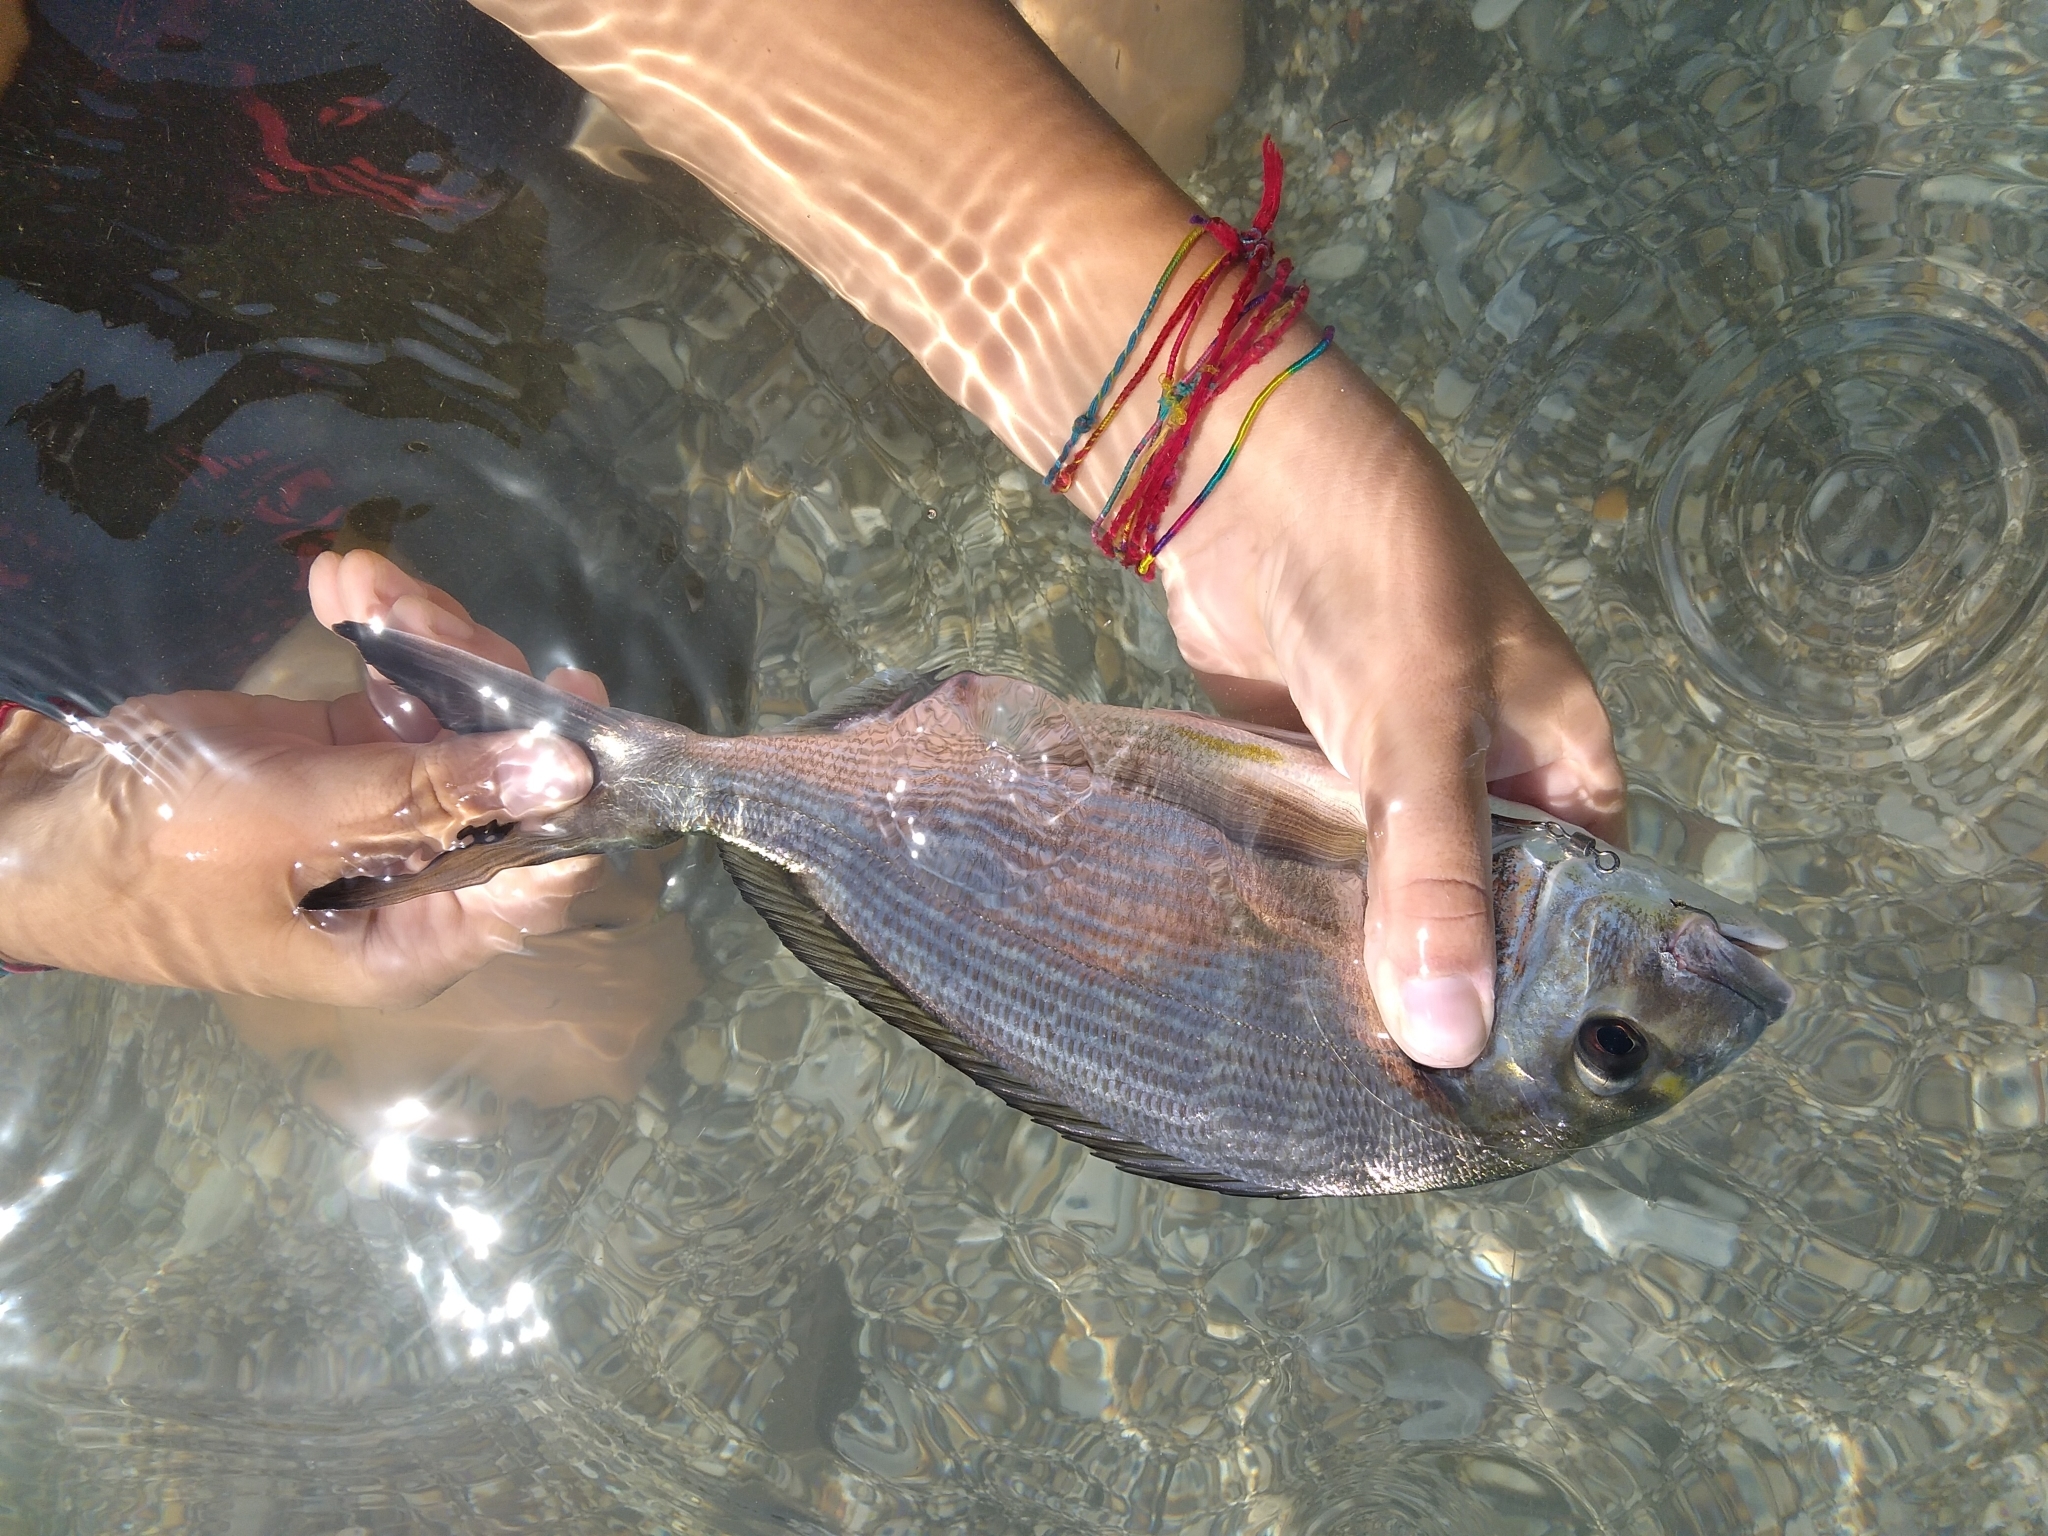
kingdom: Animalia
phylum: Chordata
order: Perciformes
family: Sparidae
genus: Sparus
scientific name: Sparus aurata
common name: Gilthead
